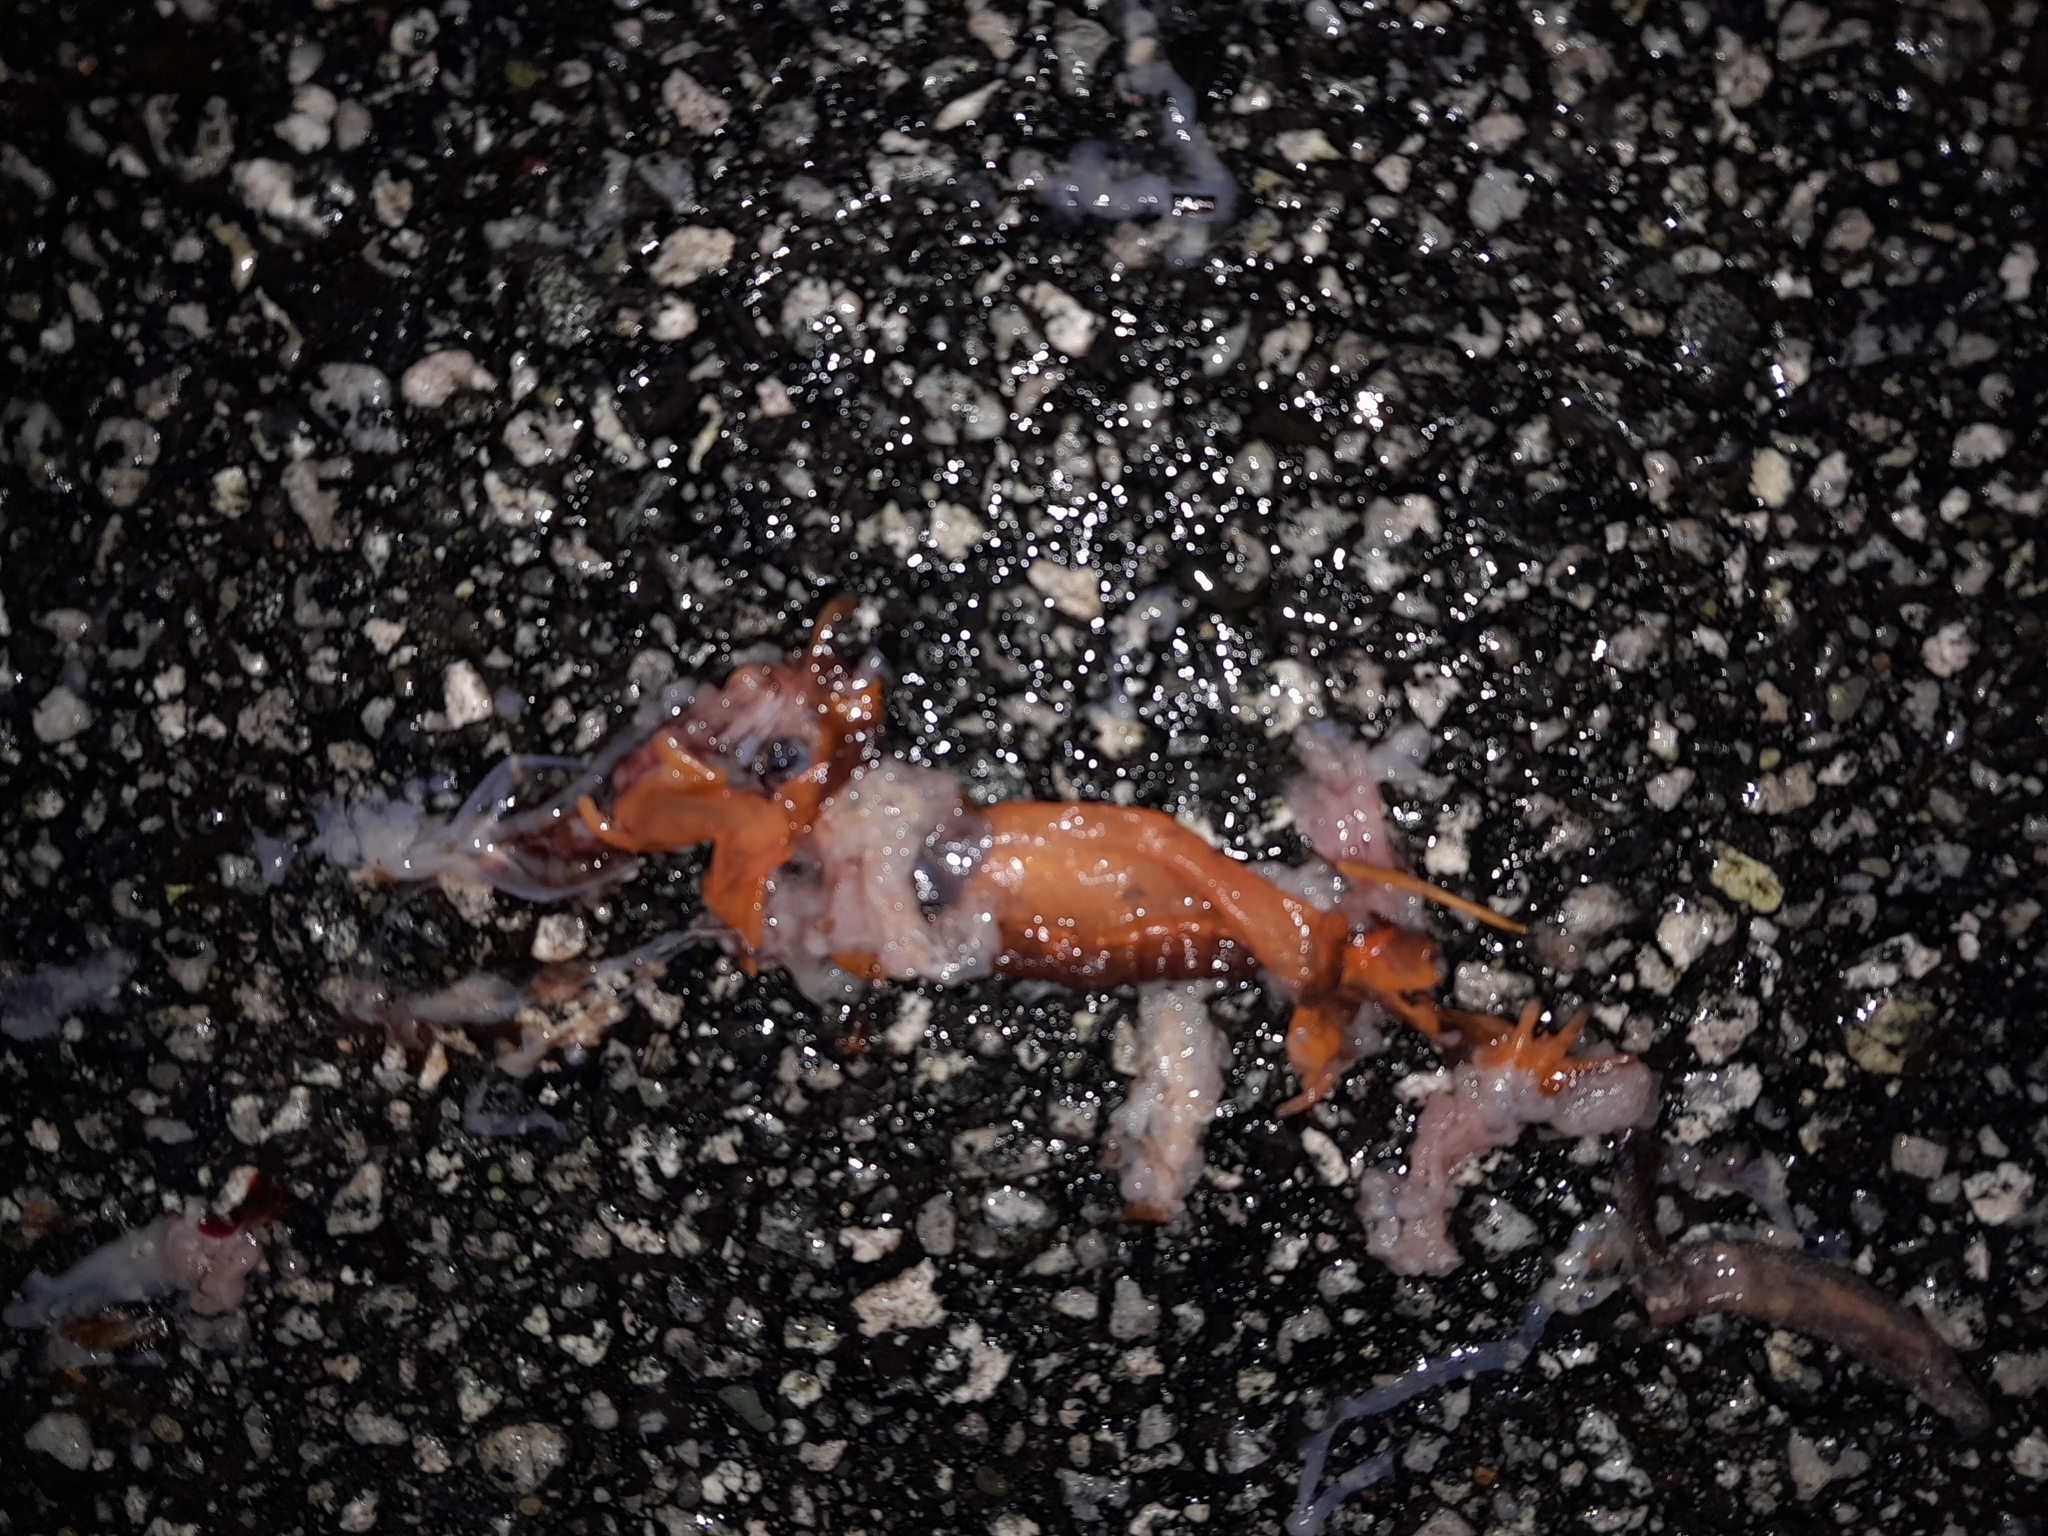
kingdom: Animalia
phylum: Chordata
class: Amphibia
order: Caudata
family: Plethodontidae
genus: Ensatina
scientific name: Ensatina eschscholtzii
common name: Ensatina
